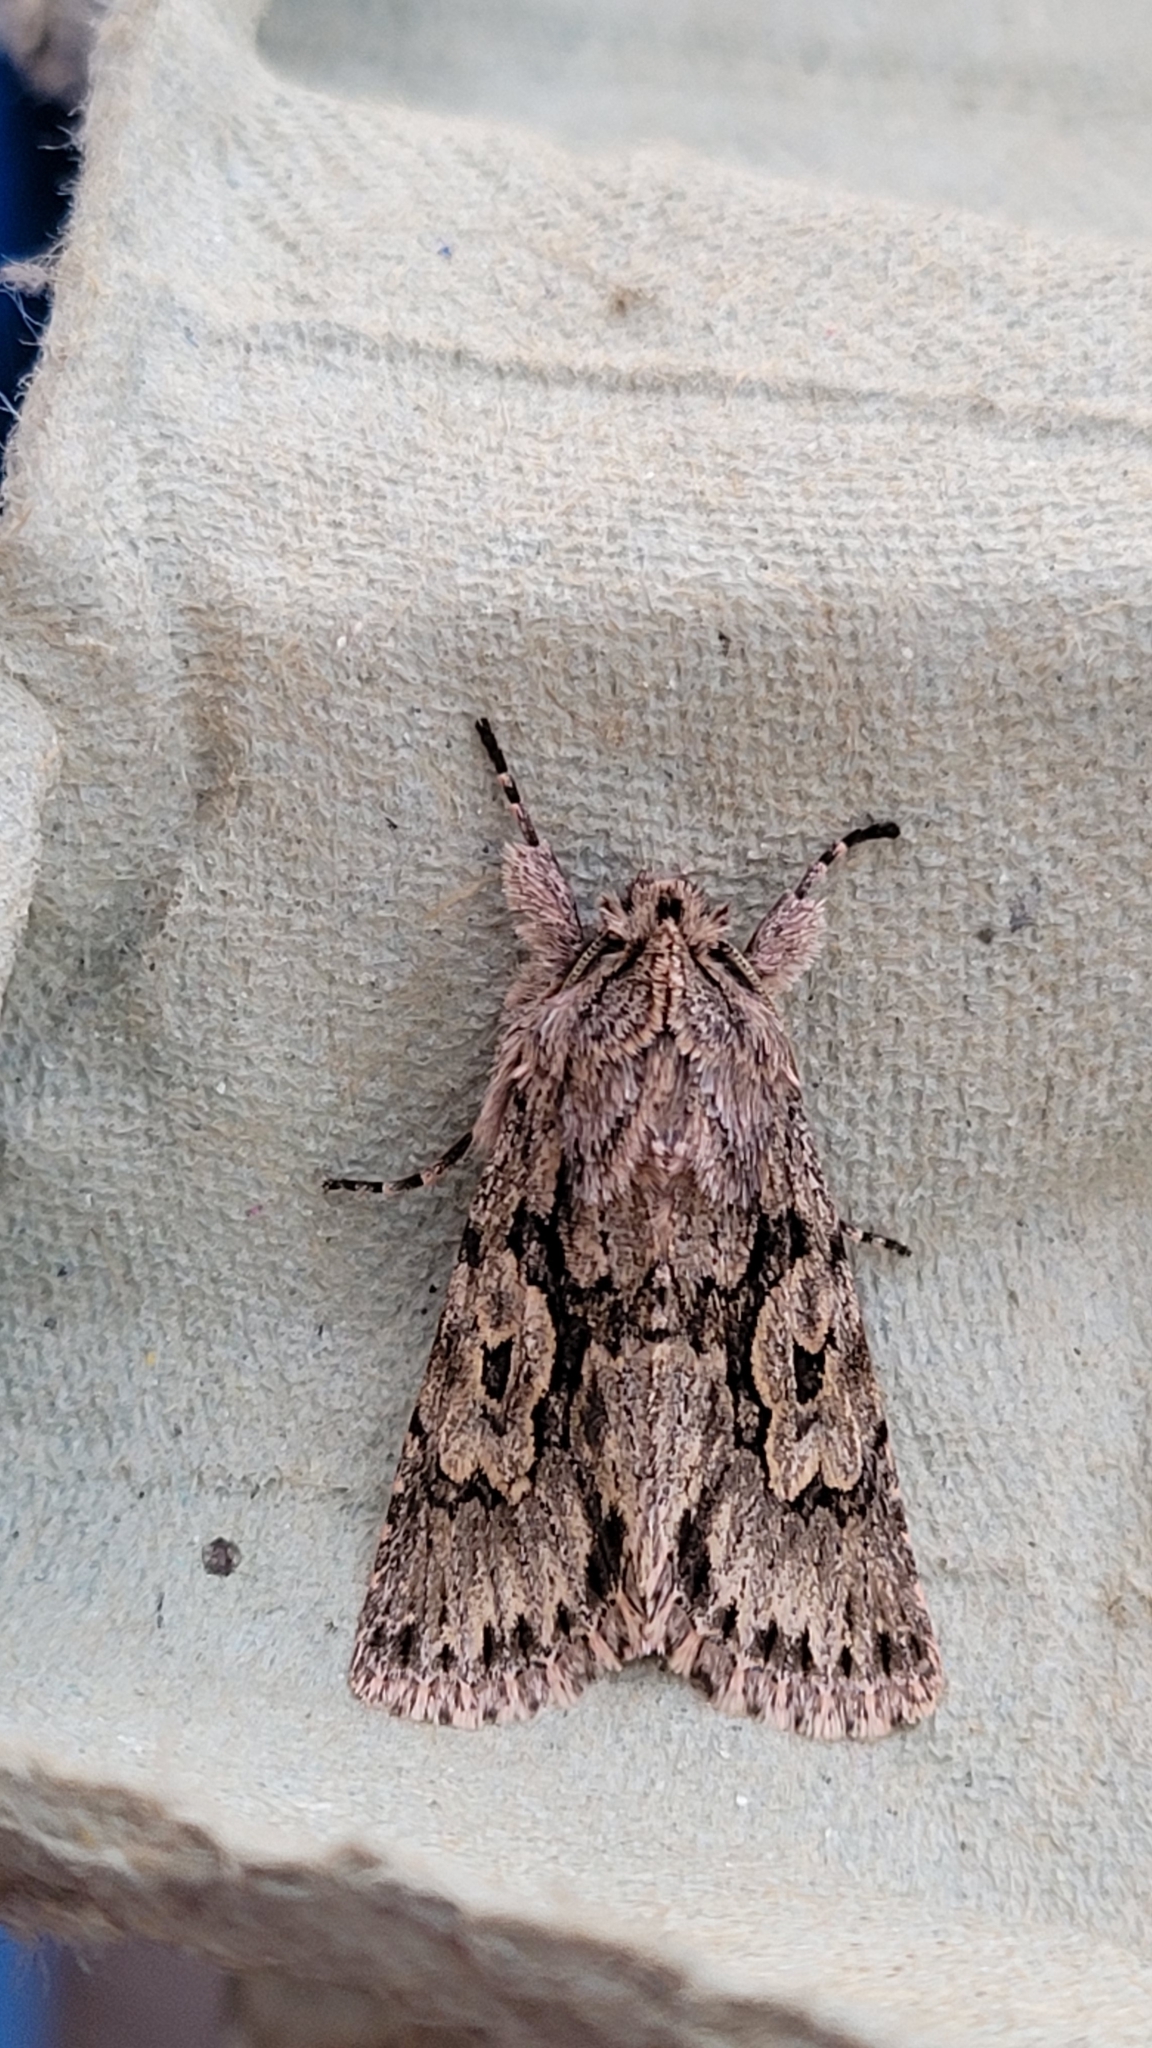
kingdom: Animalia
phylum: Arthropoda
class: Insecta
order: Lepidoptera
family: Noctuidae
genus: Xylocampa
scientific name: Xylocampa areola
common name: Early grey
